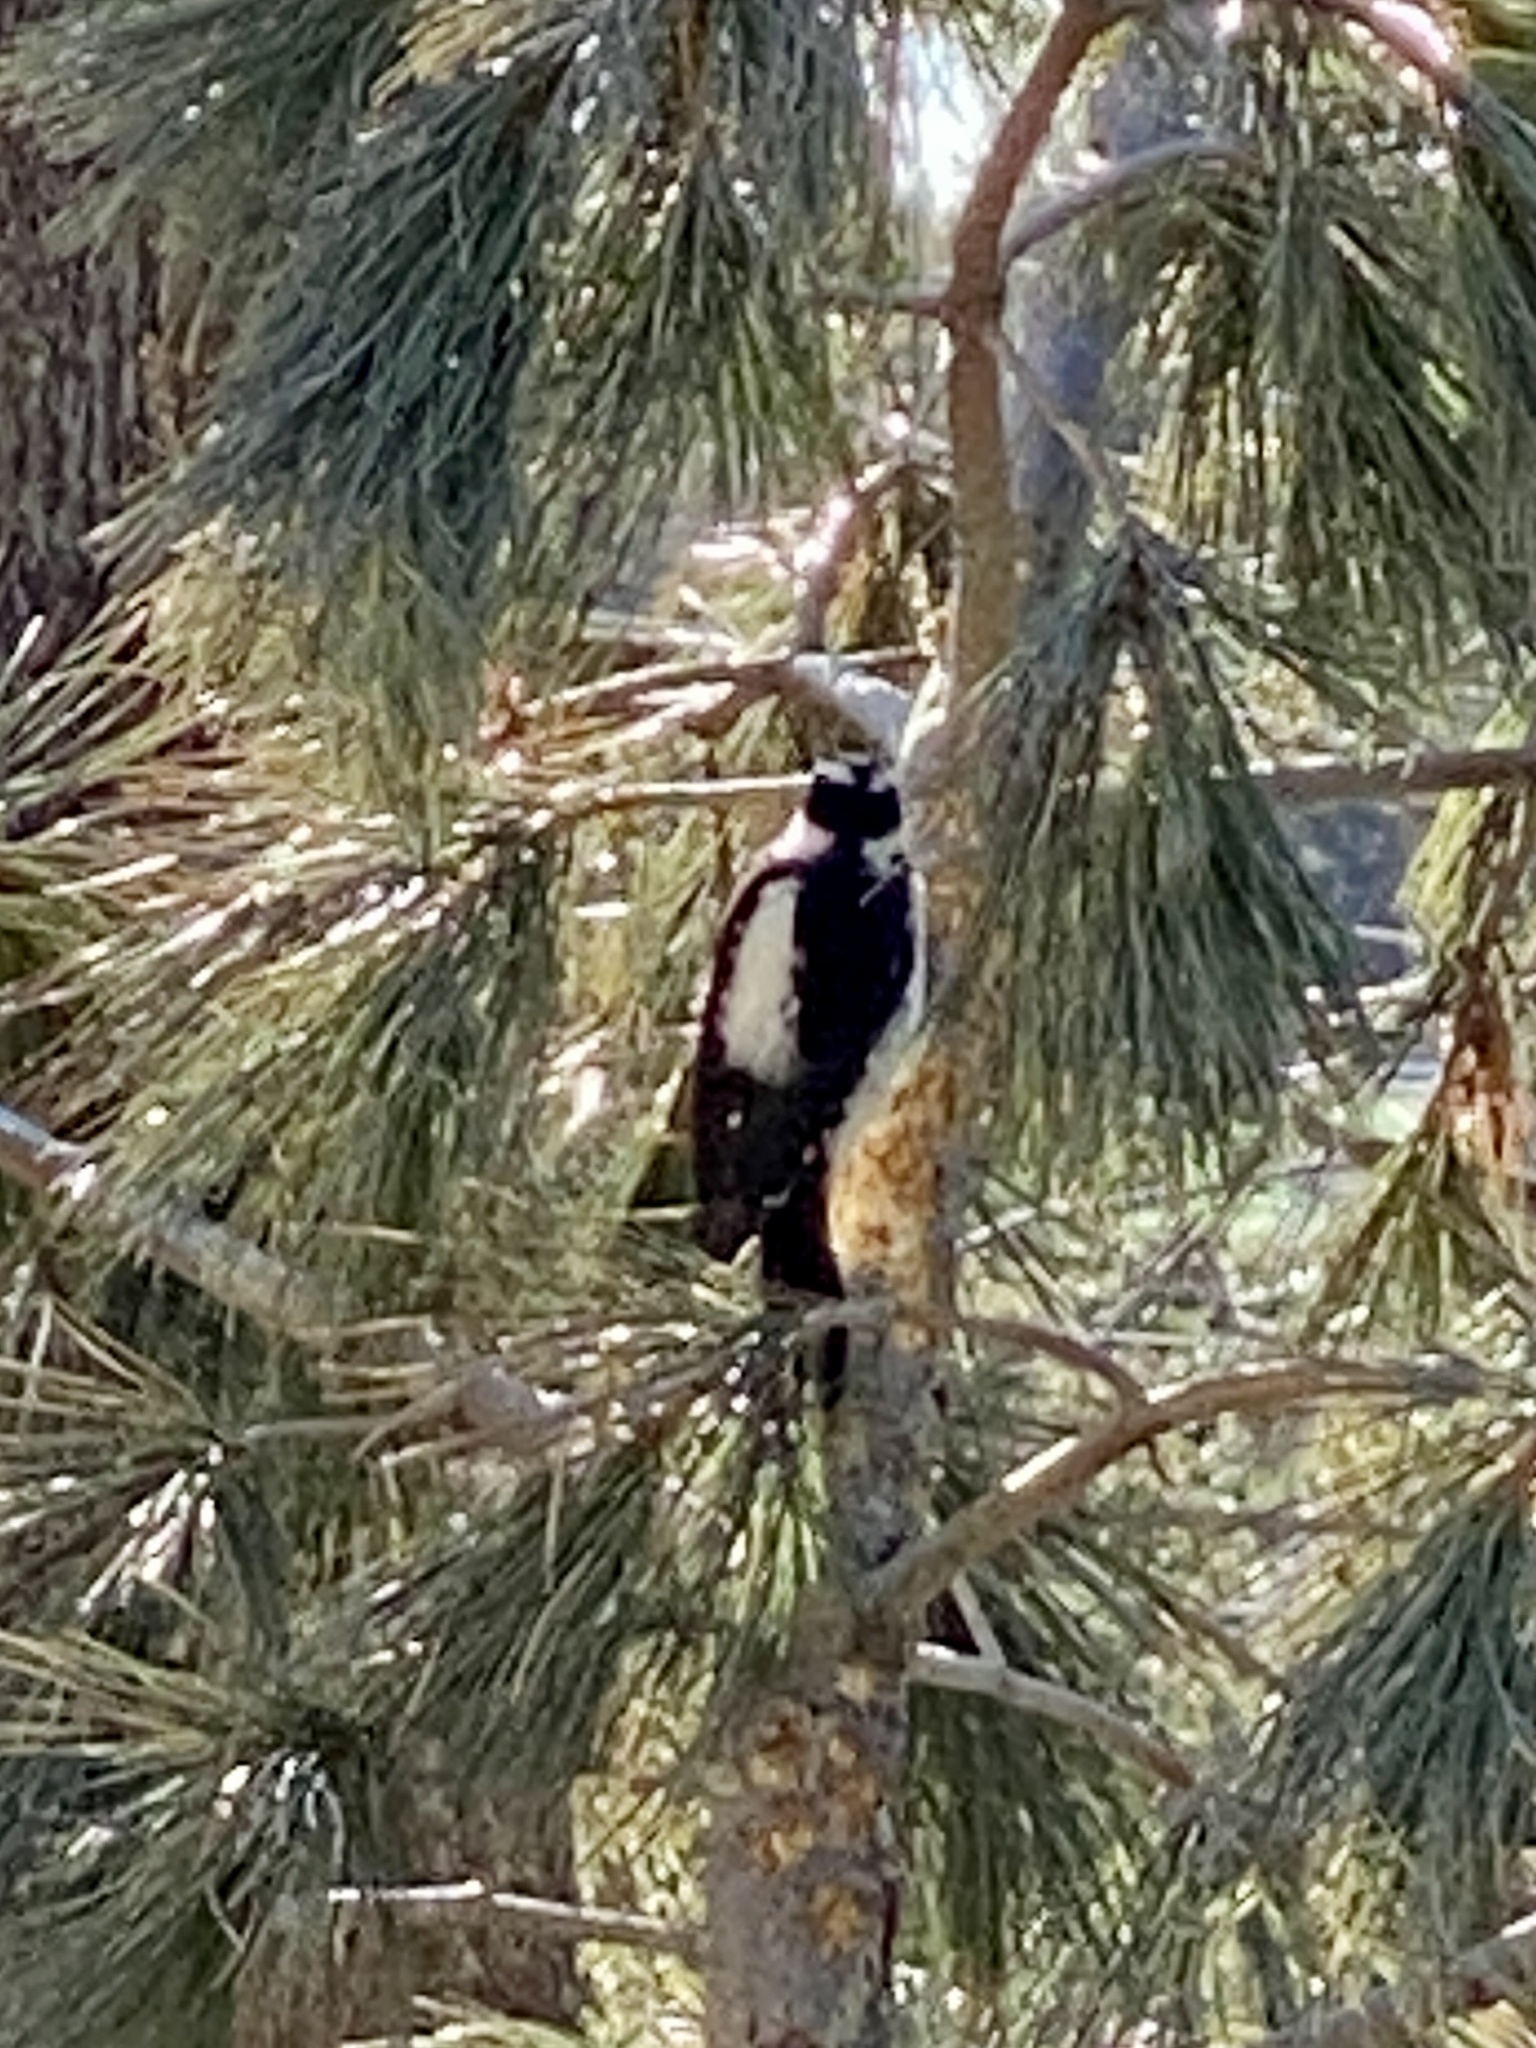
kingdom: Animalia
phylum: Chordata
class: Aves
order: Piciformes
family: Picidae
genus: Leuconotopicus
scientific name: Leuconotopicus villosus
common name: Hairy woodpecker
